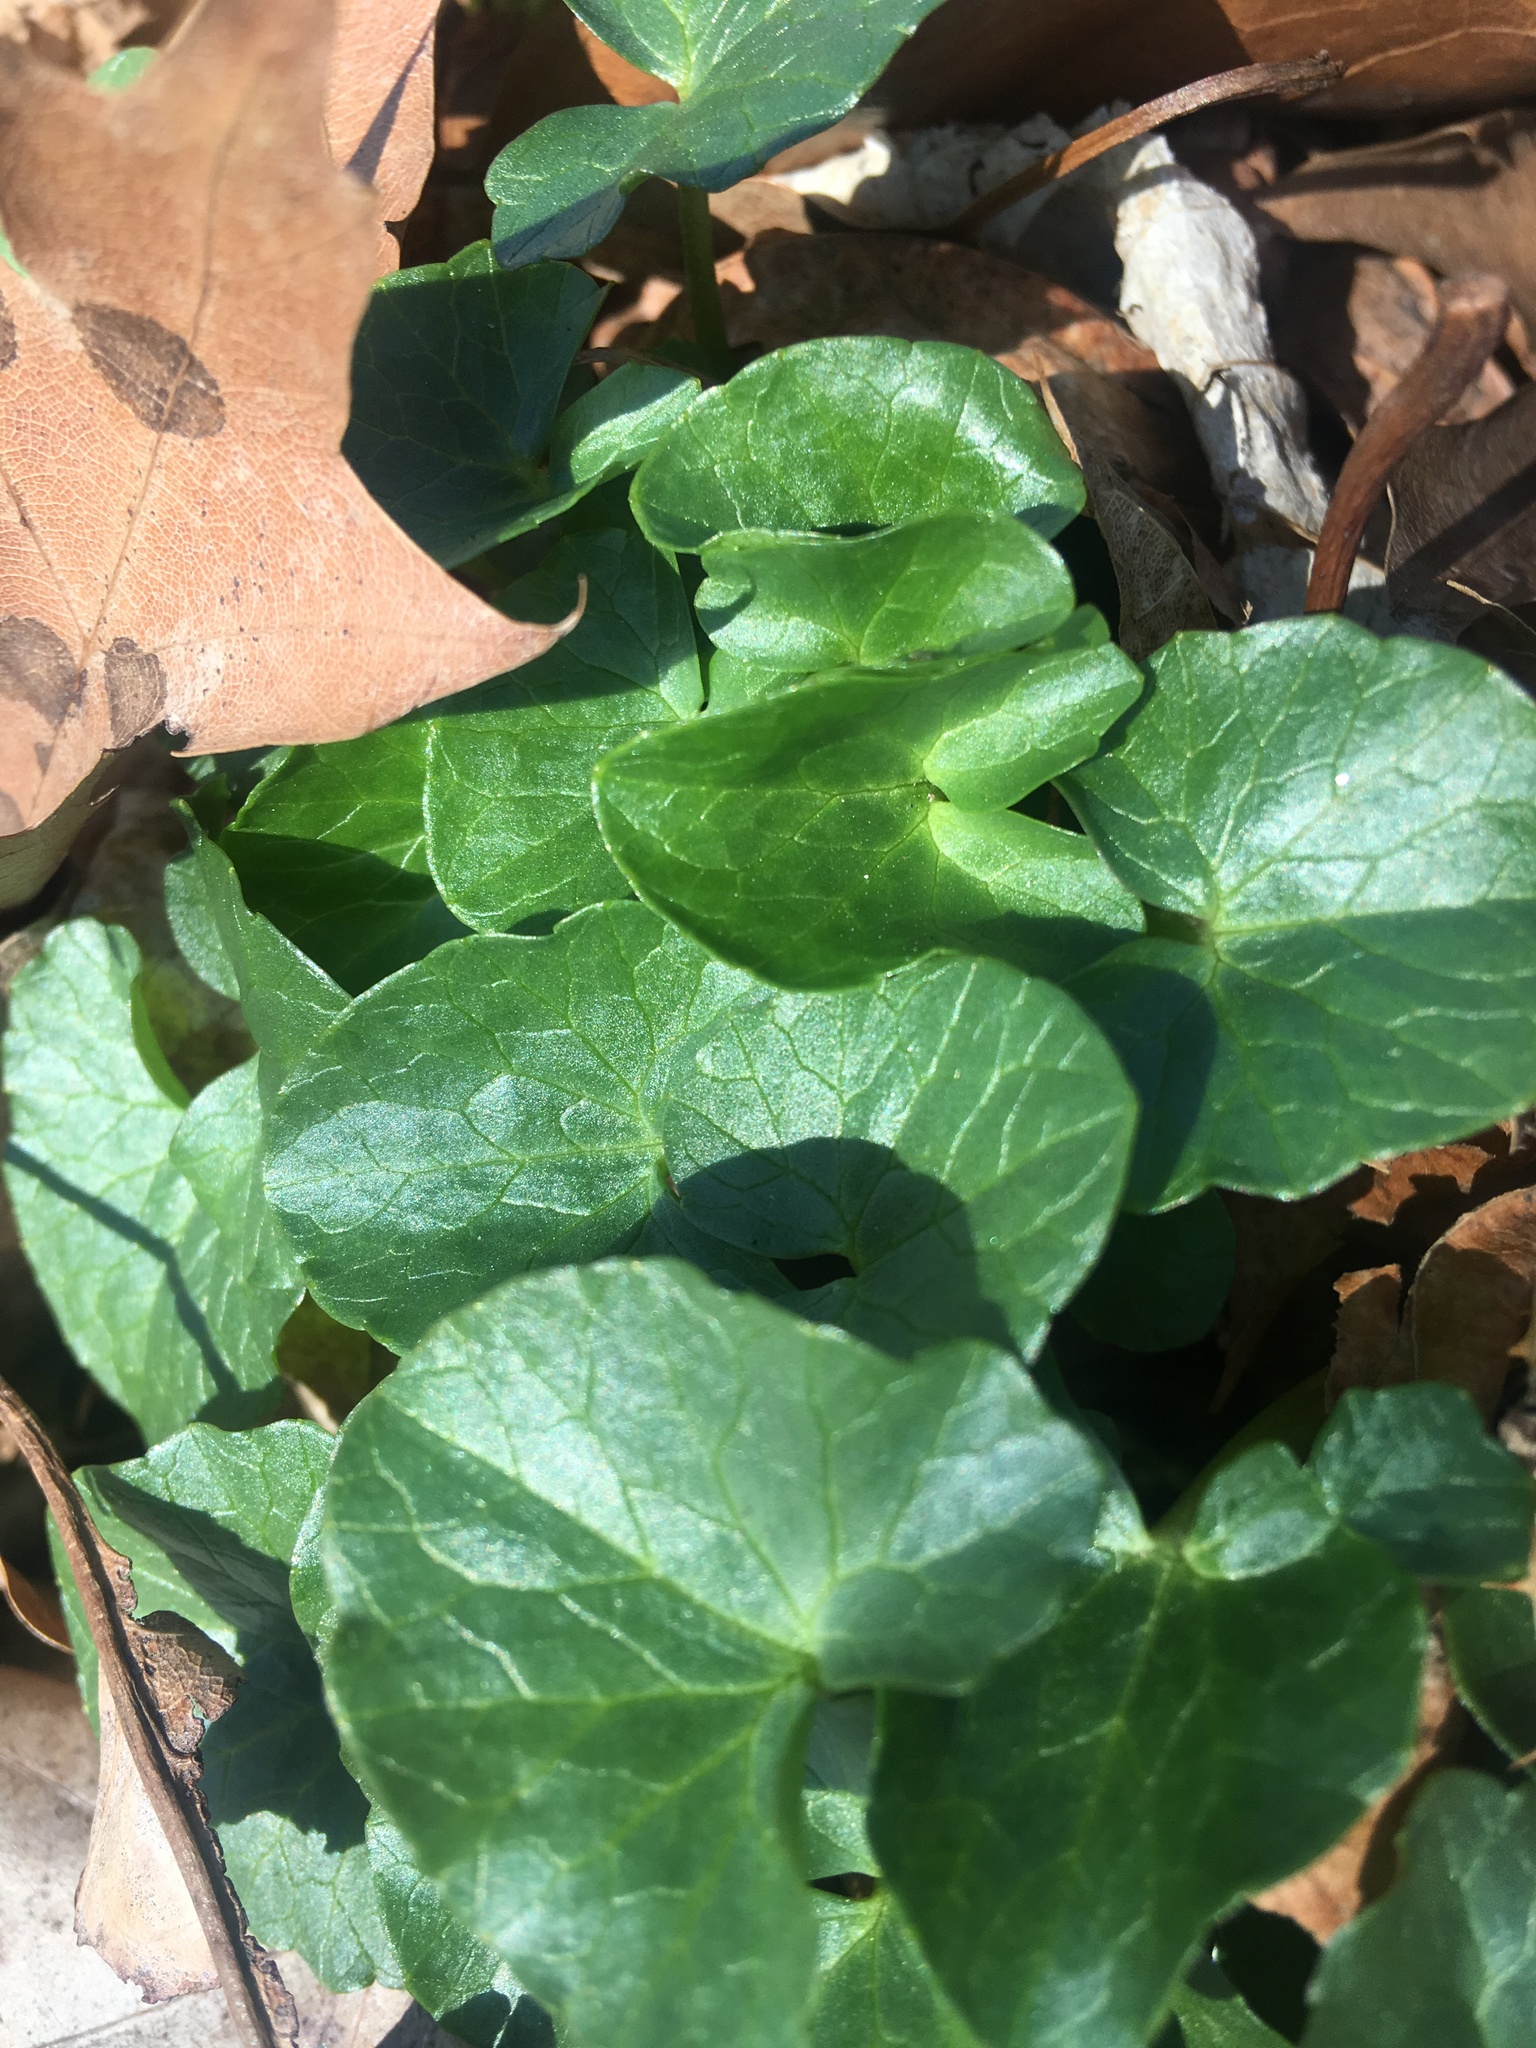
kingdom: Plantae
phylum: Tracheophyta
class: Magnoliopsida
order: Ranunculales
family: Ranunculaceae
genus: Ficaria
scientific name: Ficaria verna
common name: Lesser celandine
